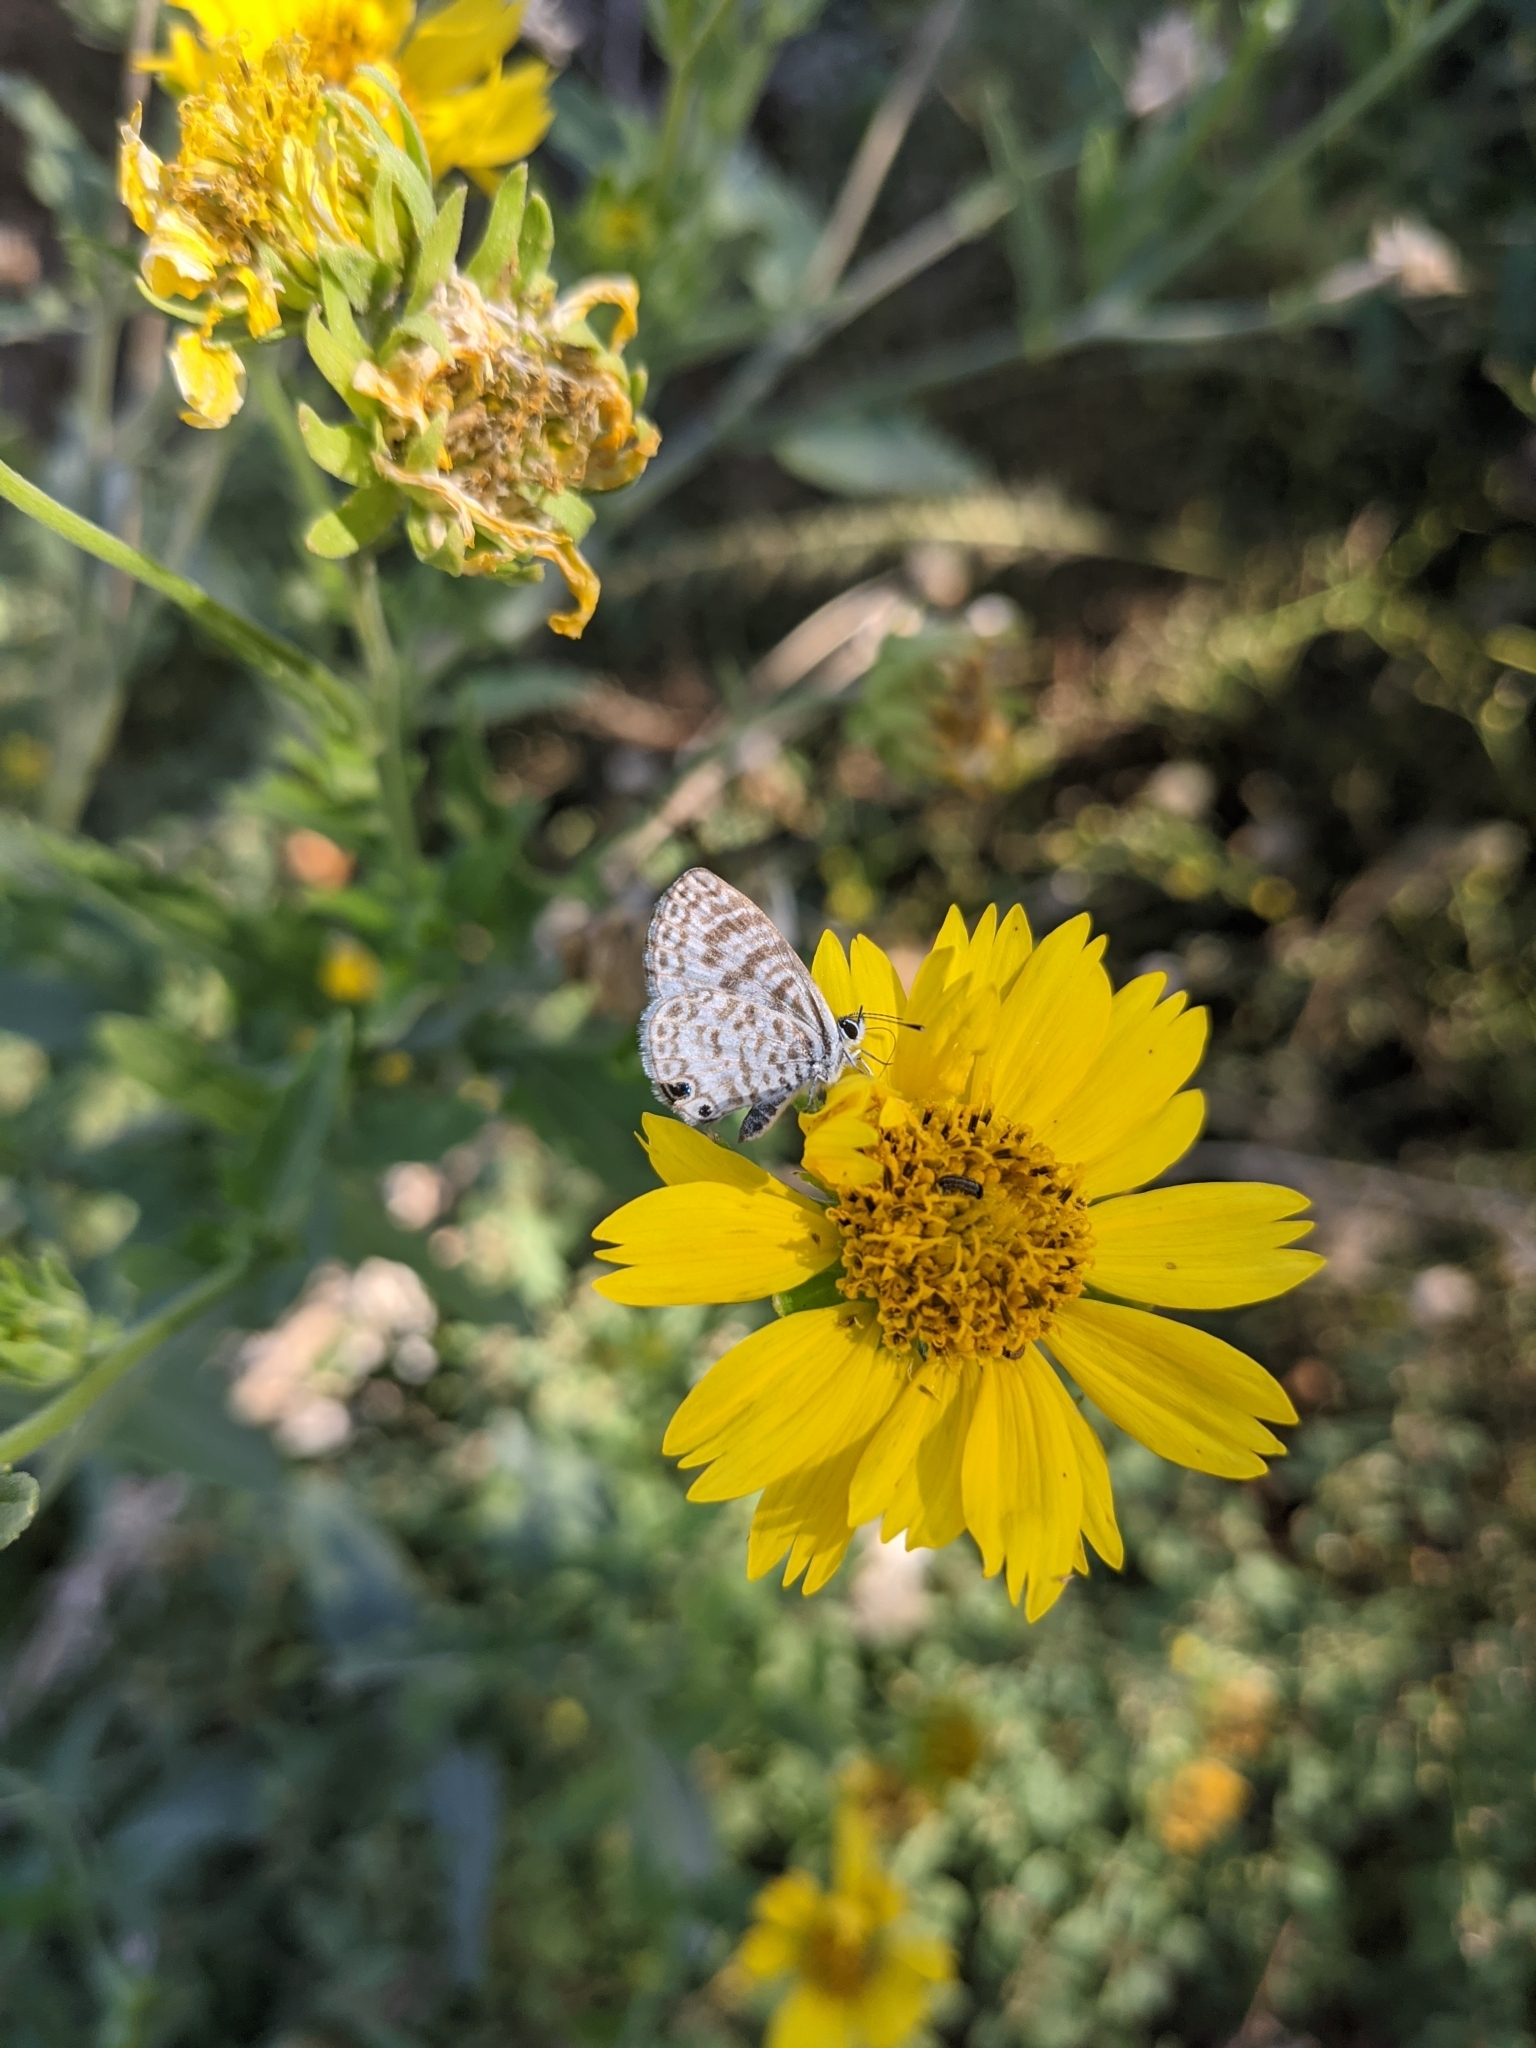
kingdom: Animalia
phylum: Arthropoda
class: Insecta
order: Lepidoptera
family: Lycaenidae
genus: Leptotes
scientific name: Leptotes cassius
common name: Cassius blue
